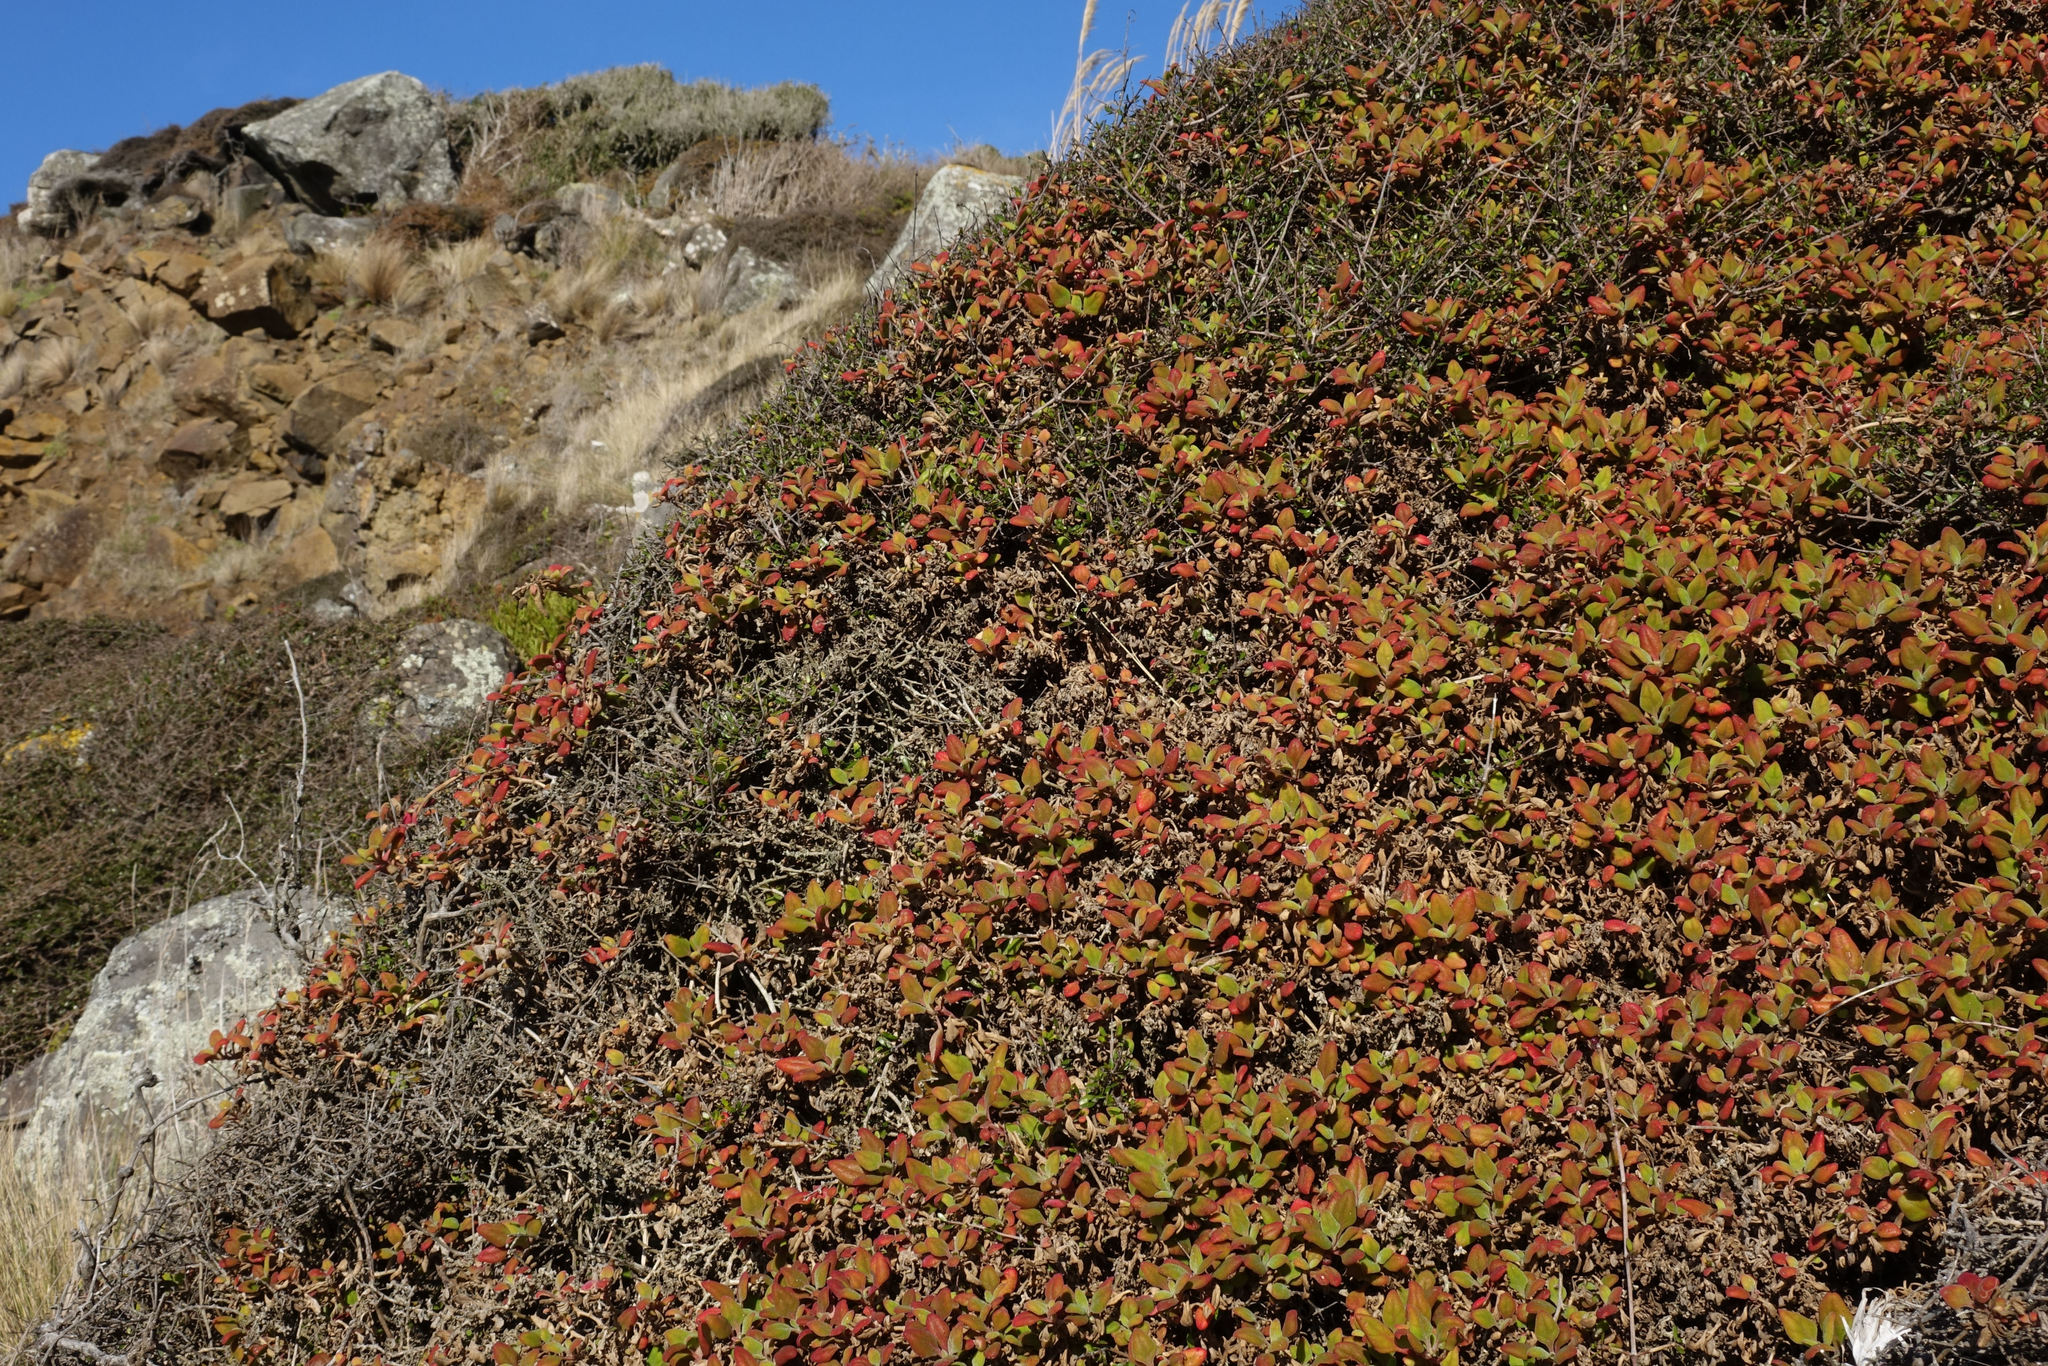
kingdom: Plantae
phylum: Tracheophyta
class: Magnoliopsida
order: Caryophyllales
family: Aizoaceae
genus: Tetragonia
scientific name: Tetragonia implexicoma
